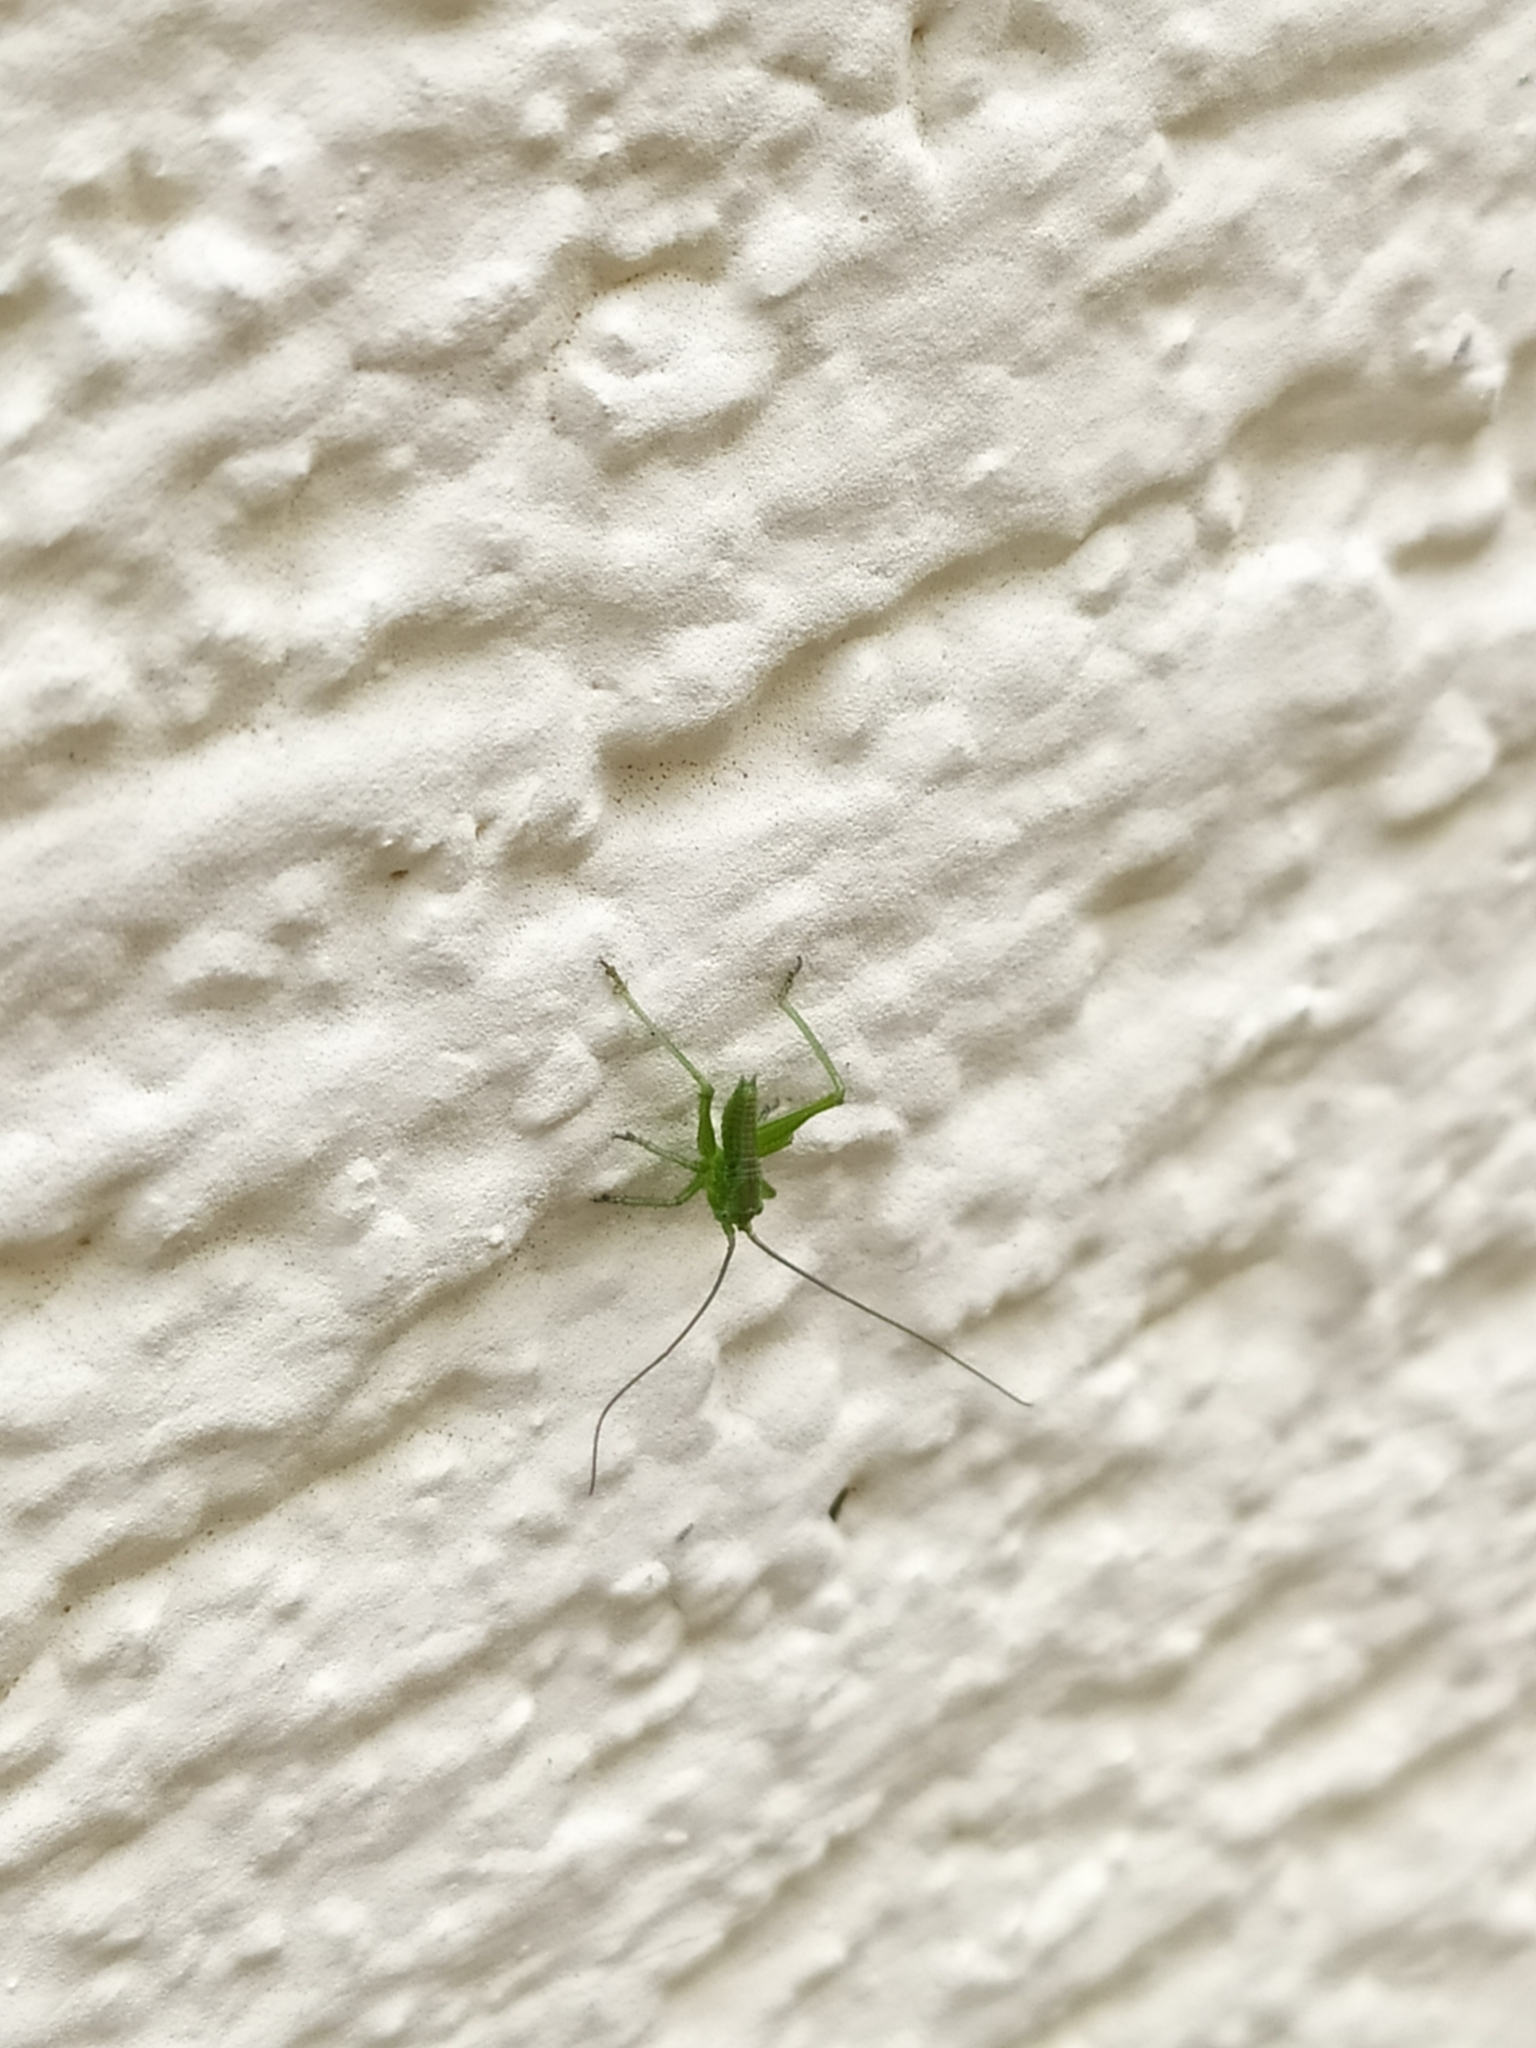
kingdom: Animalia
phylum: Arthropoda
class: Insecta
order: Orthoptera
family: Tettigoniidae
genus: Tettigonia
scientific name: Tettigonia viridissima
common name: Great green bush-cricket
